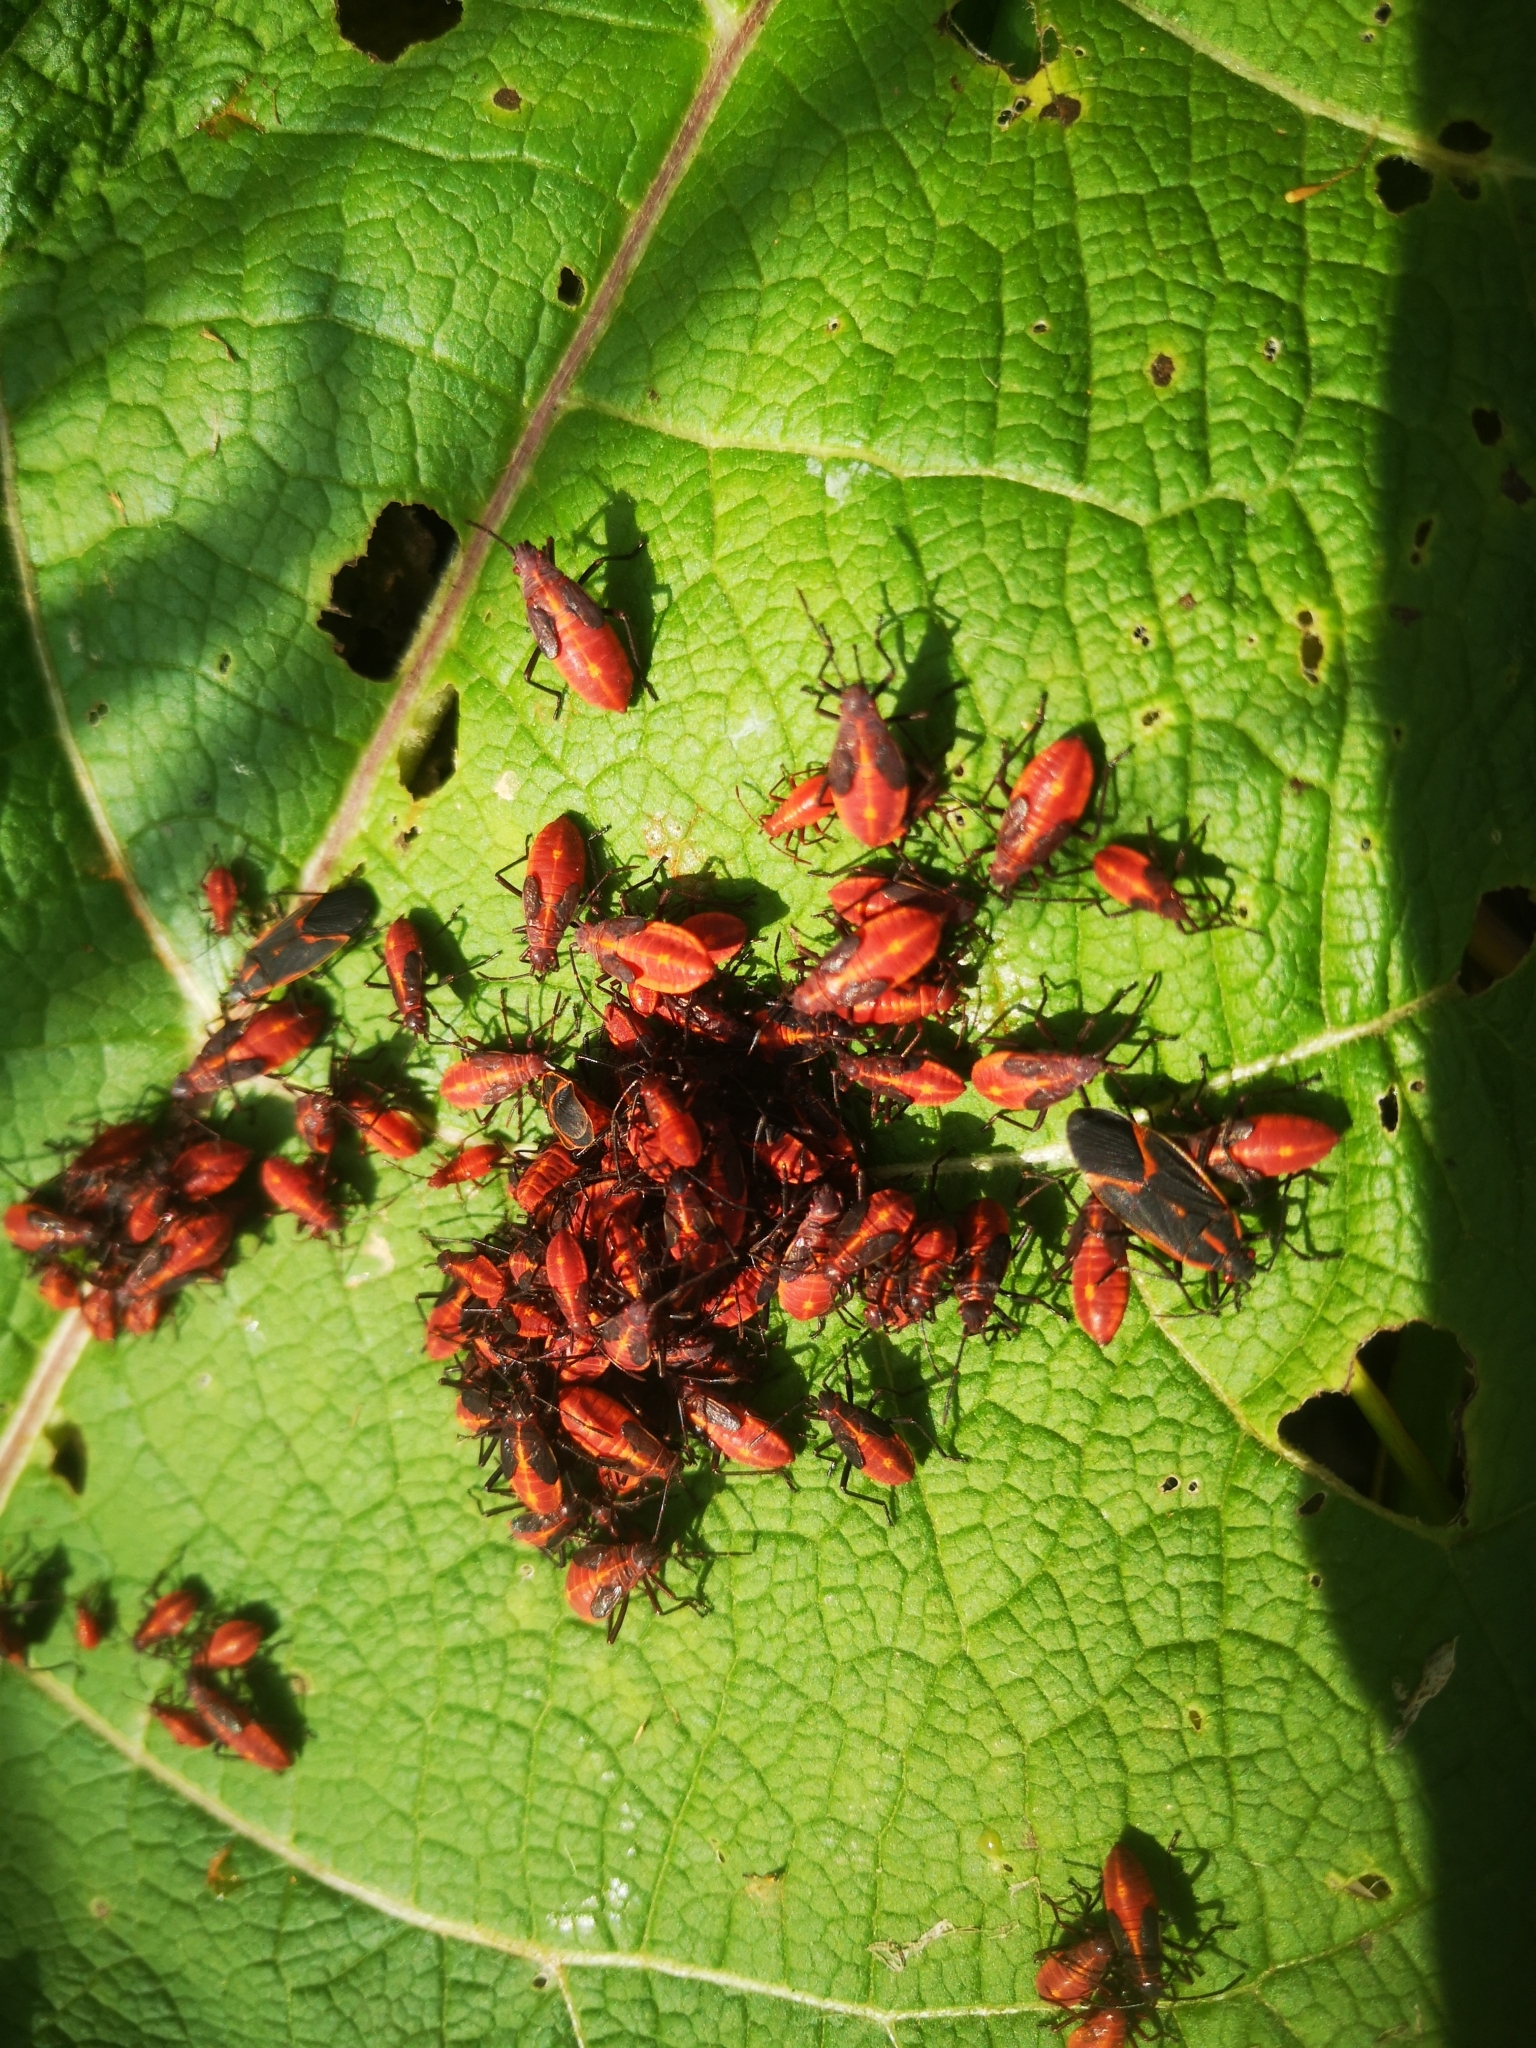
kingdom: Animalia
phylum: Arthropoda
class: Insecta
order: Hemiptera
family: Rhopalidae
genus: Boisea
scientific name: Boisea trivittata
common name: Boxelder bug
